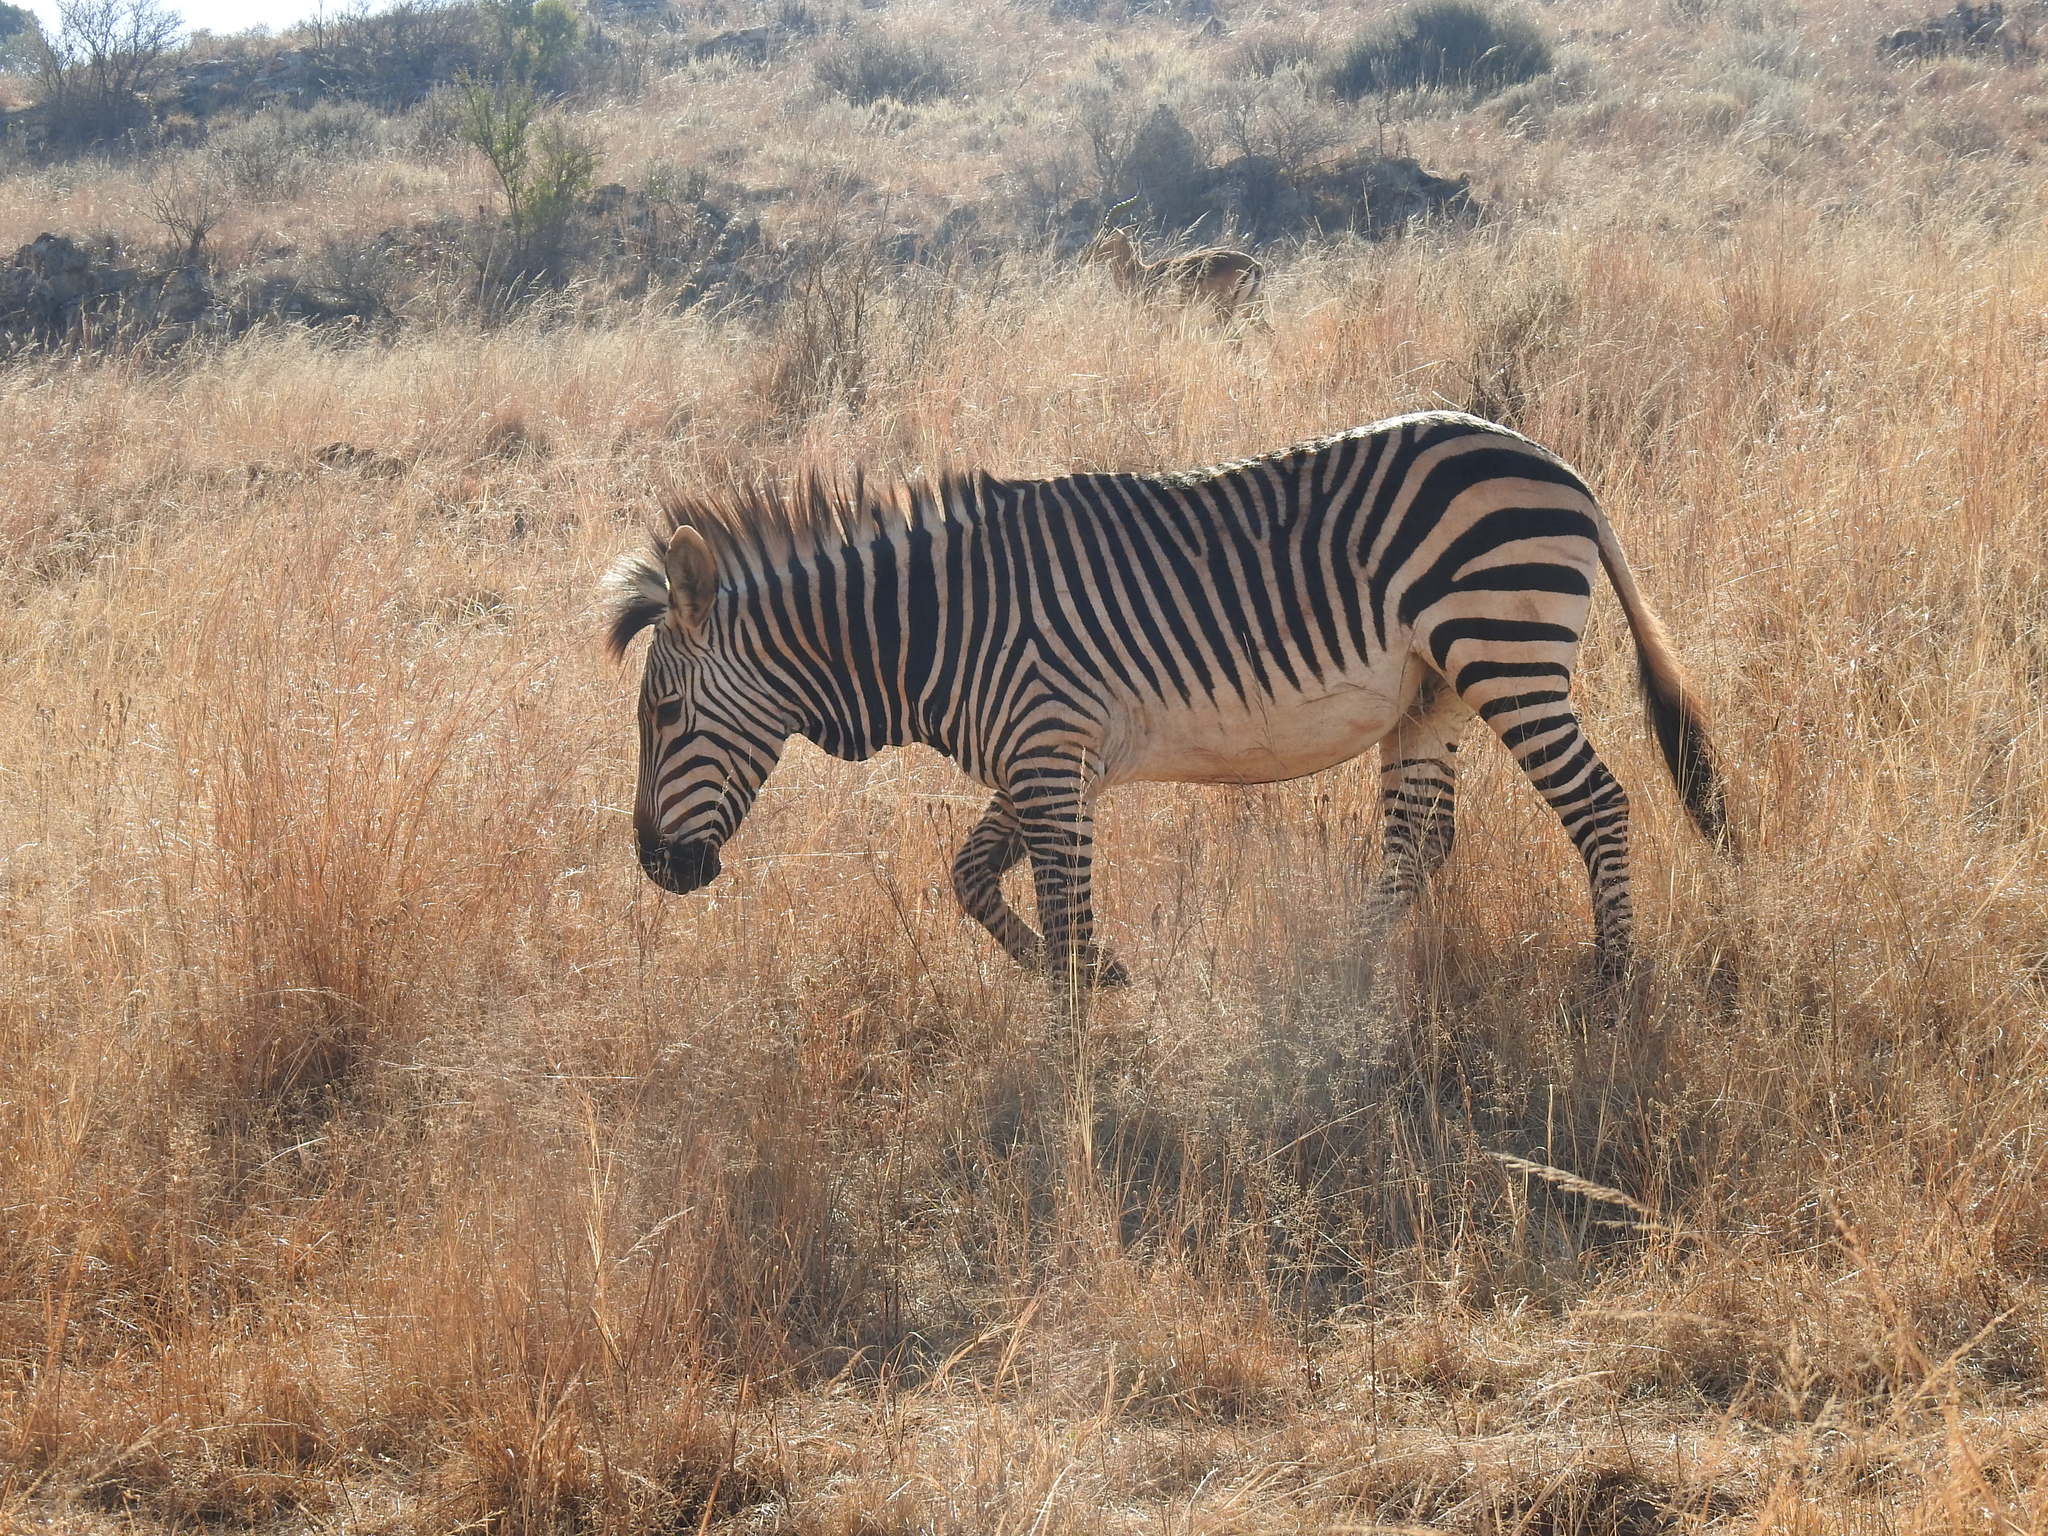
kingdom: Animalia
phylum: Chordata
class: Mammalia
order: Perissodactyla
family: Equidae
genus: Equus
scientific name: Equus zebra
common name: Mountain zebra
